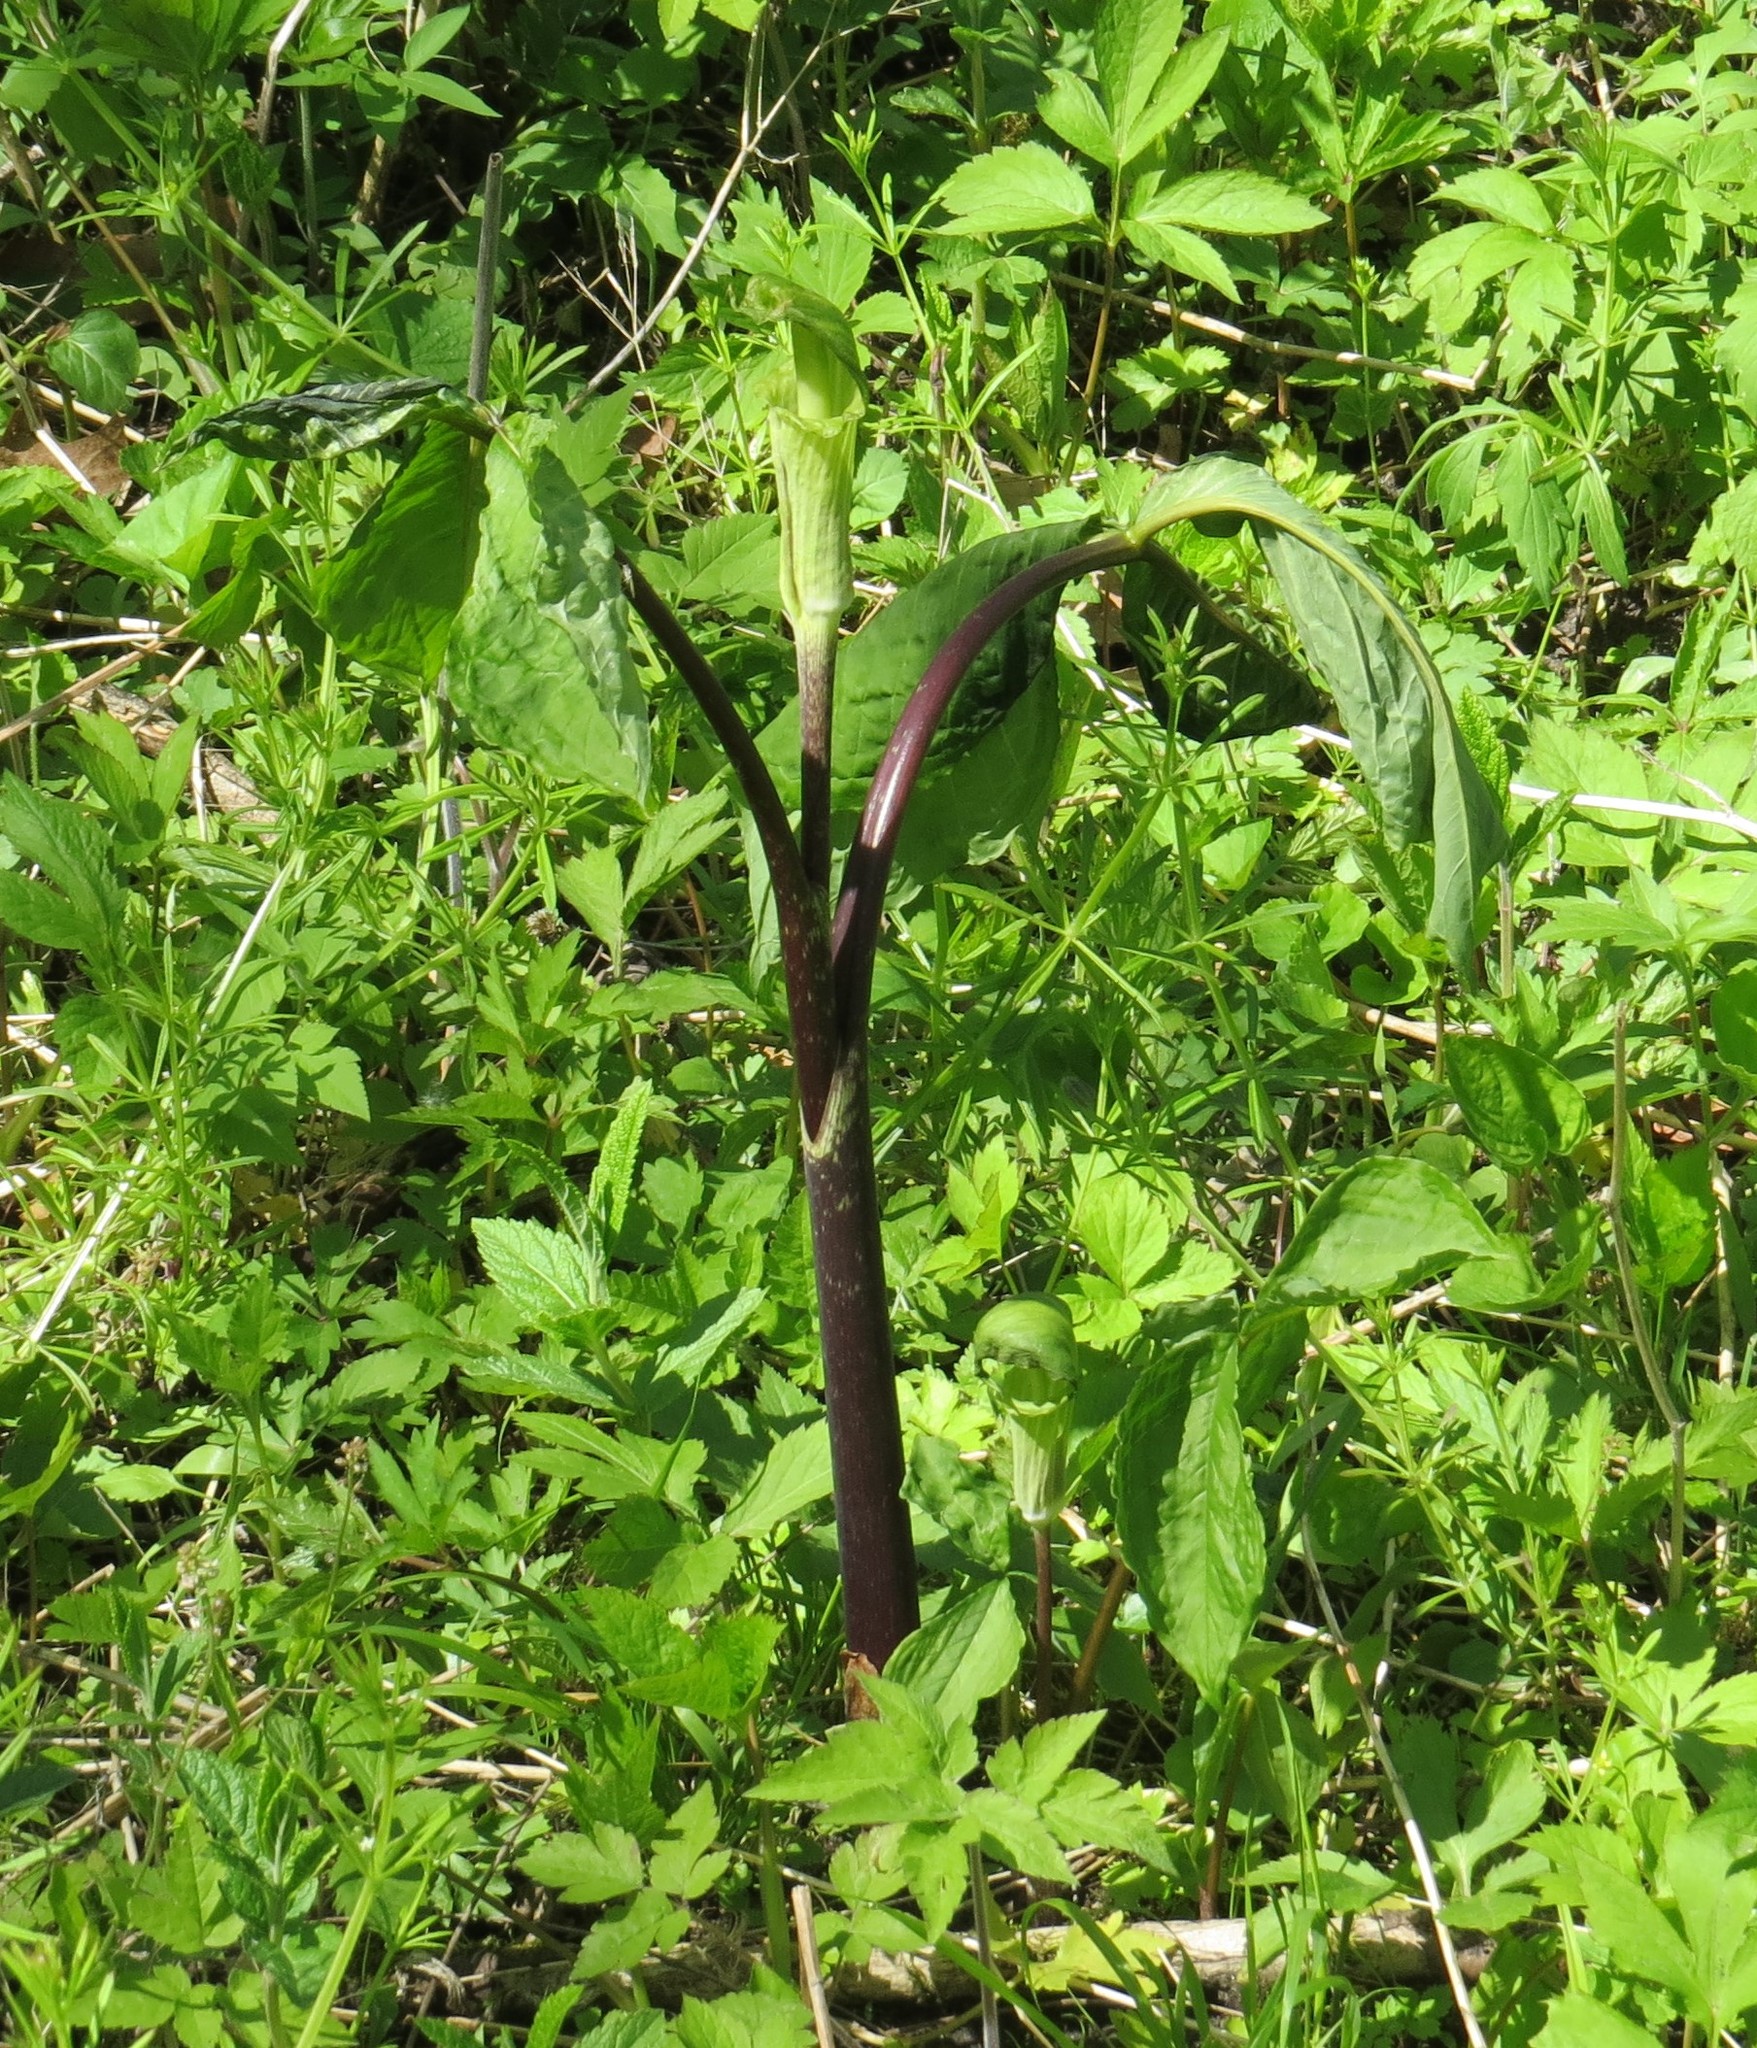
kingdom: Plantae
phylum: Tracheophyta
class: Liliopsida
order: Alismatales
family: Araceae
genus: Arisaema
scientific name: Arisaema triphyllum
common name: Jack-in-the-pulpit
